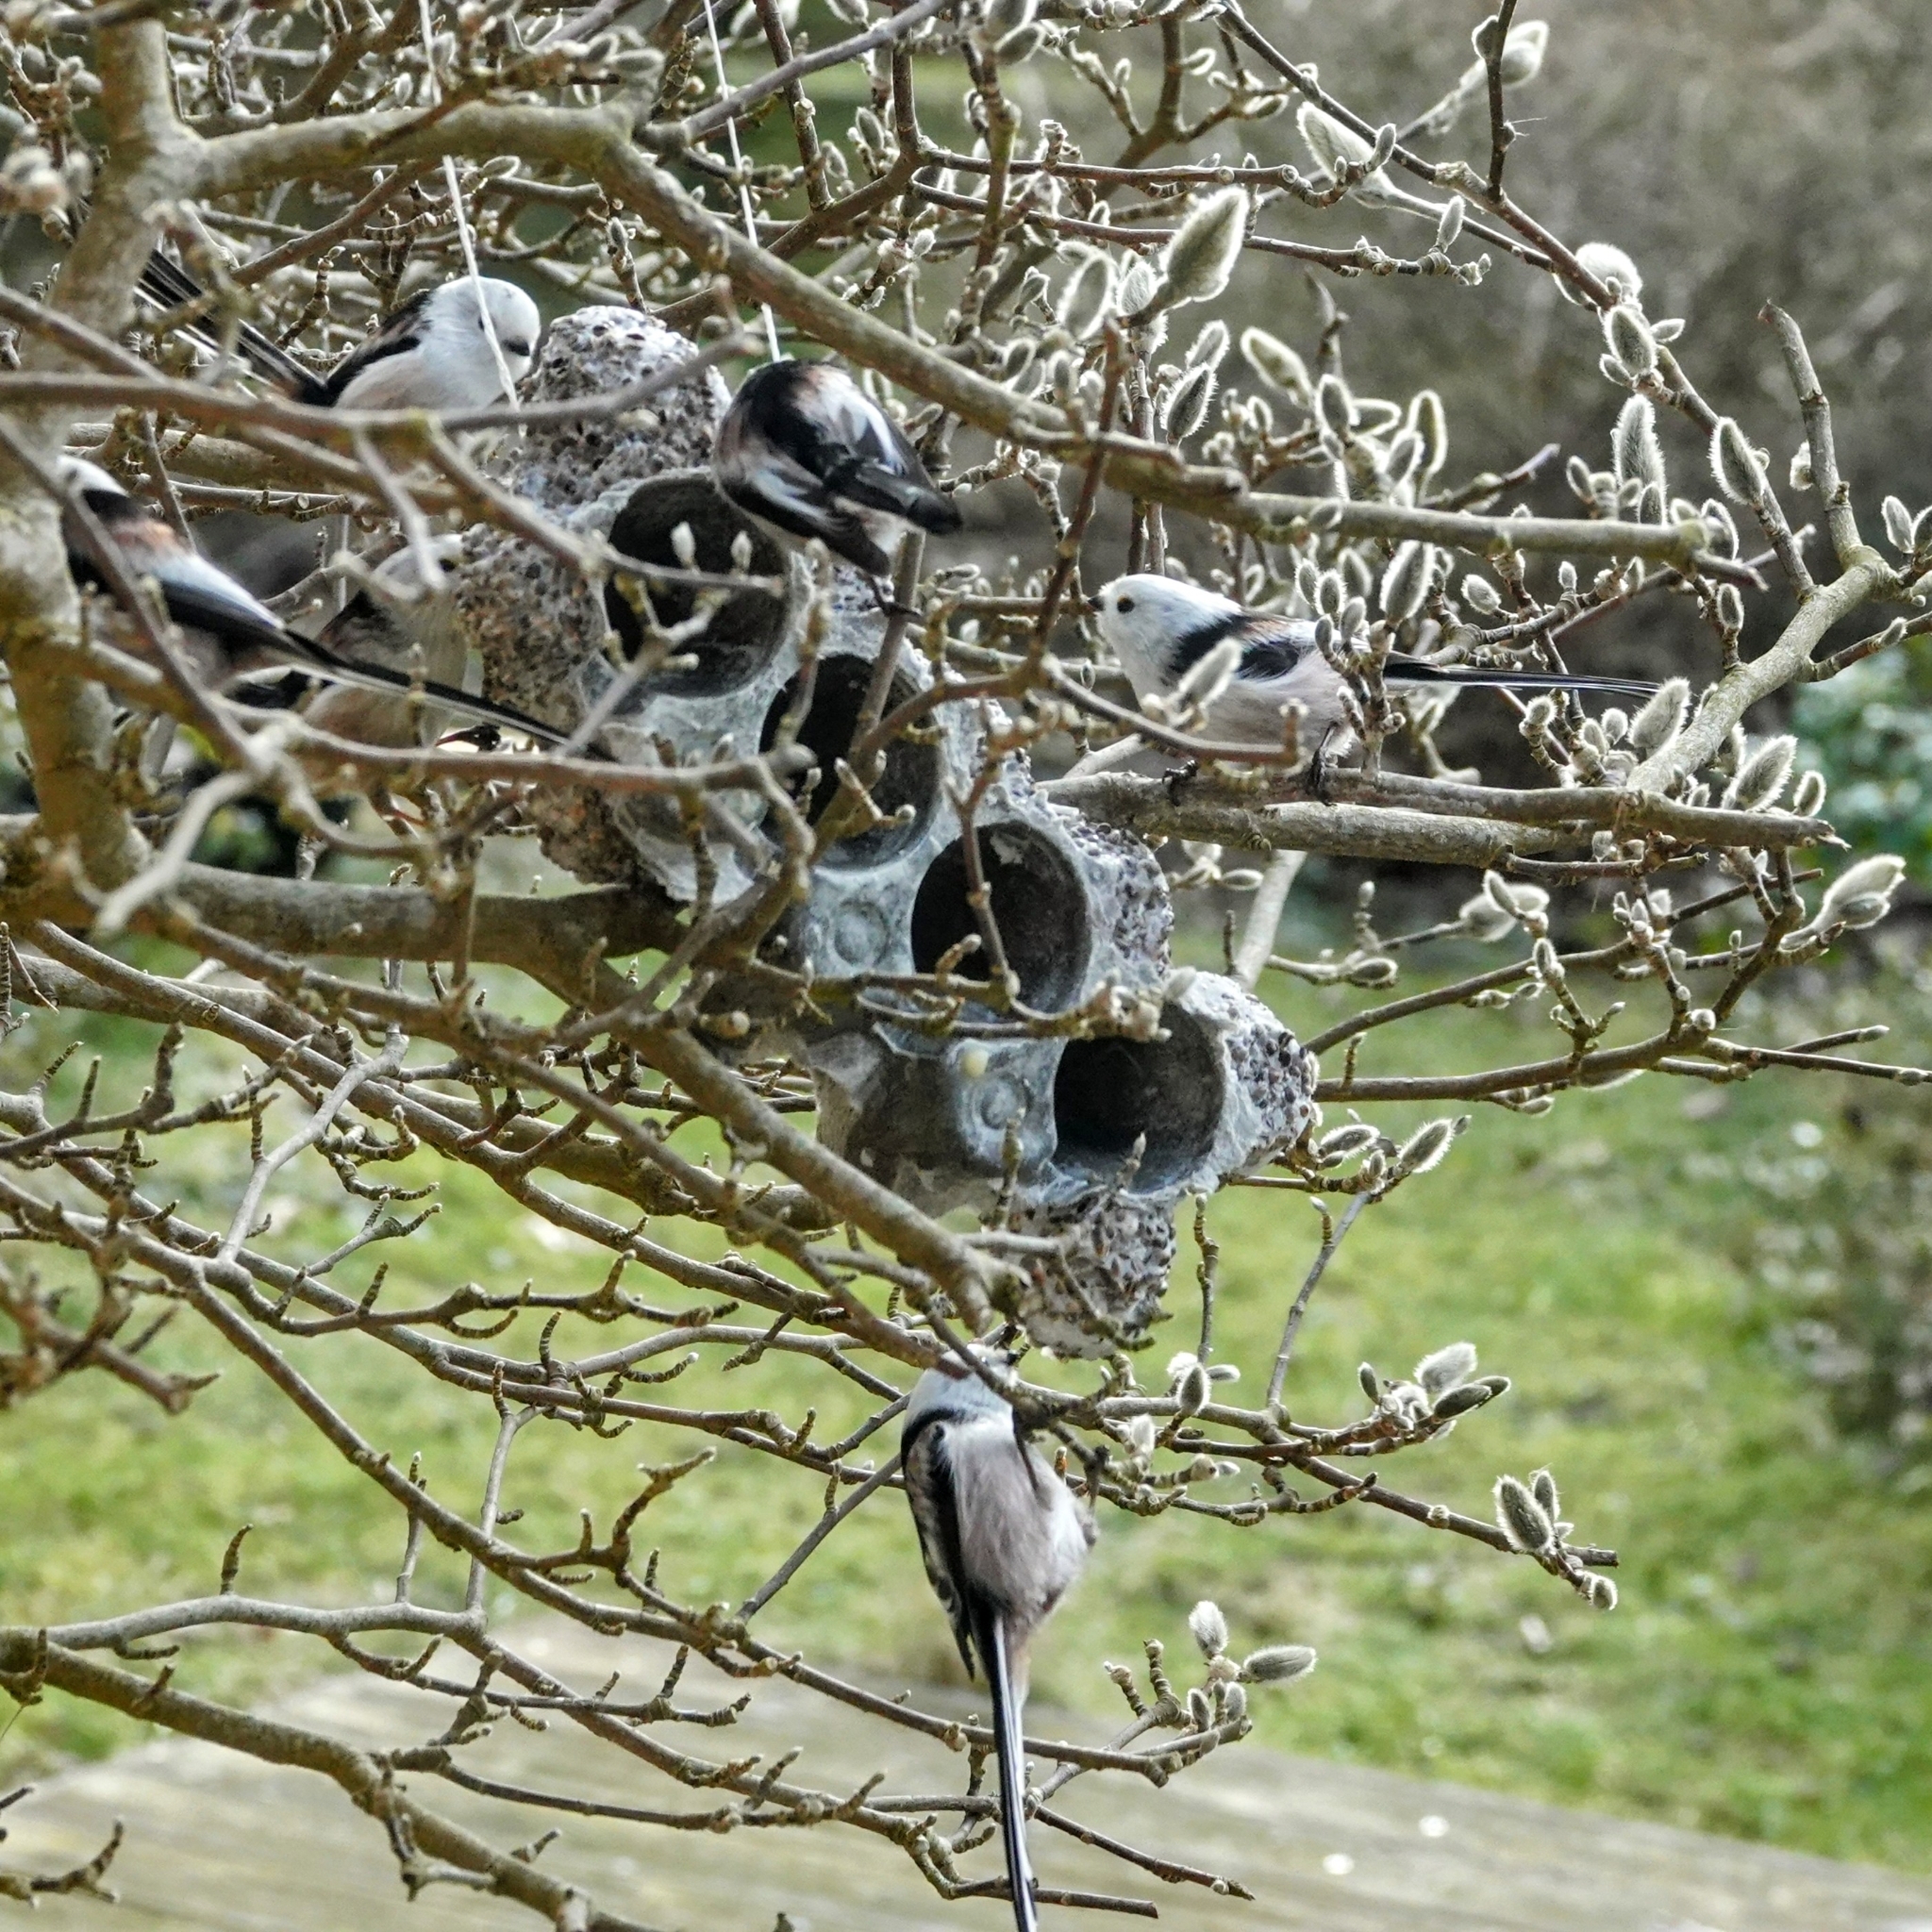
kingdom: Animalia
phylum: Chordata
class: Aves
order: Passeriformes
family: Aegithalidae
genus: Aegithalos
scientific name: Aegithalos caudatus
